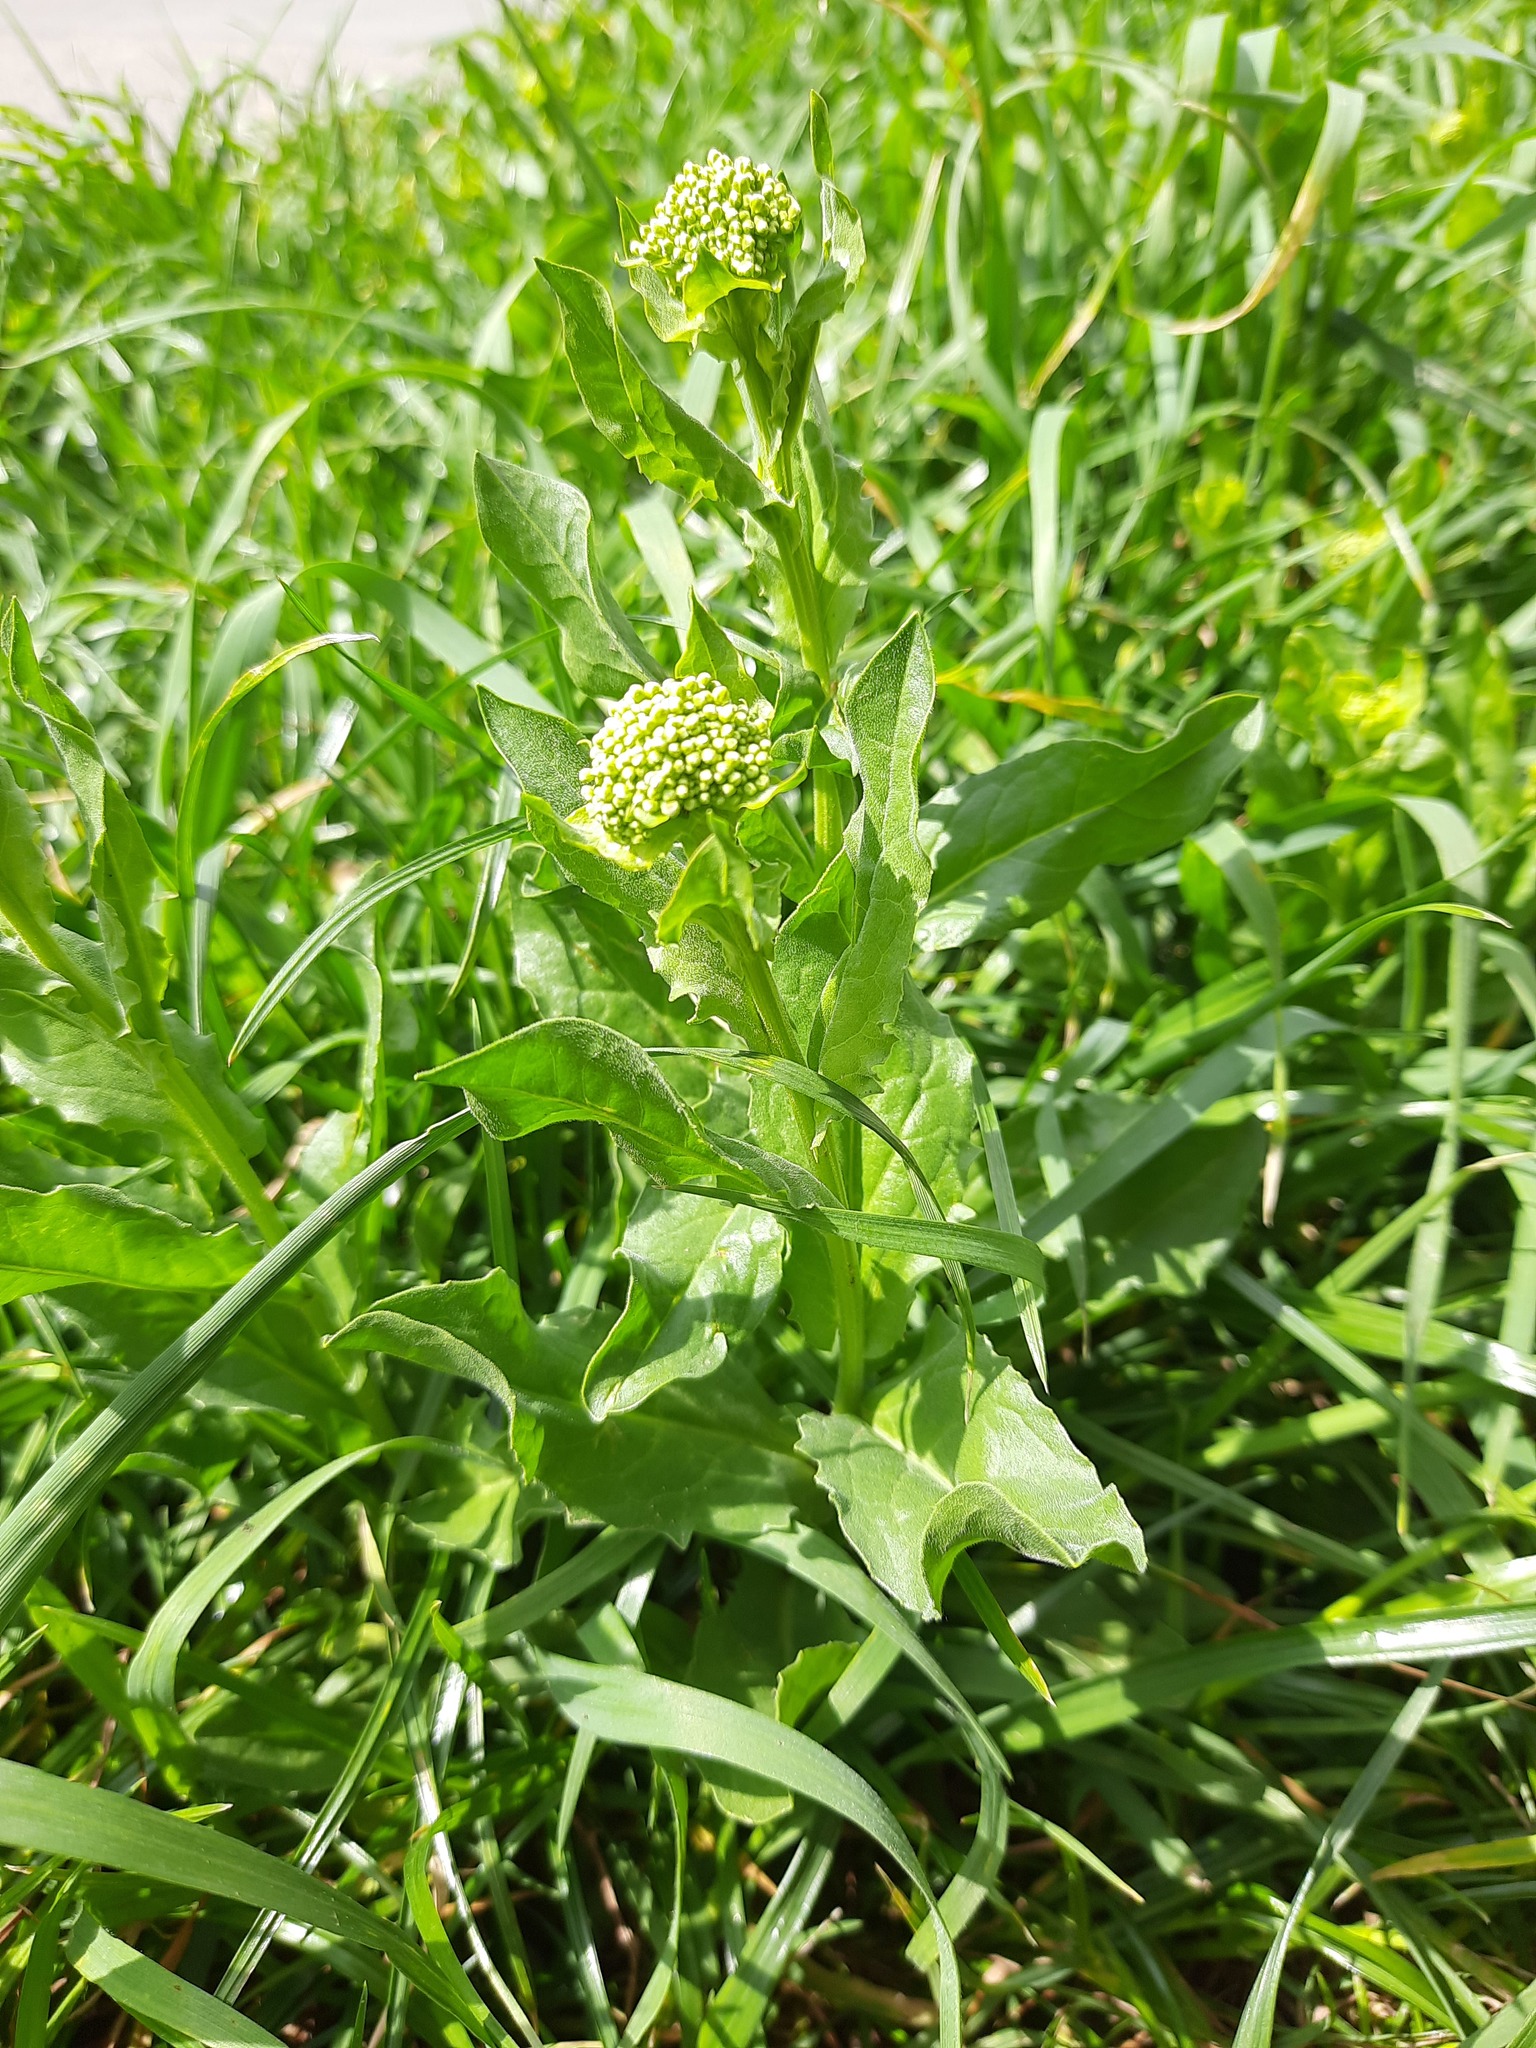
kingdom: Plantae
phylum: Tracheophyta
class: Magnoliopsida
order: Brassicales
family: Brassicaceae
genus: Lepidium
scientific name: Lepidium draba
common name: Hoary cress
